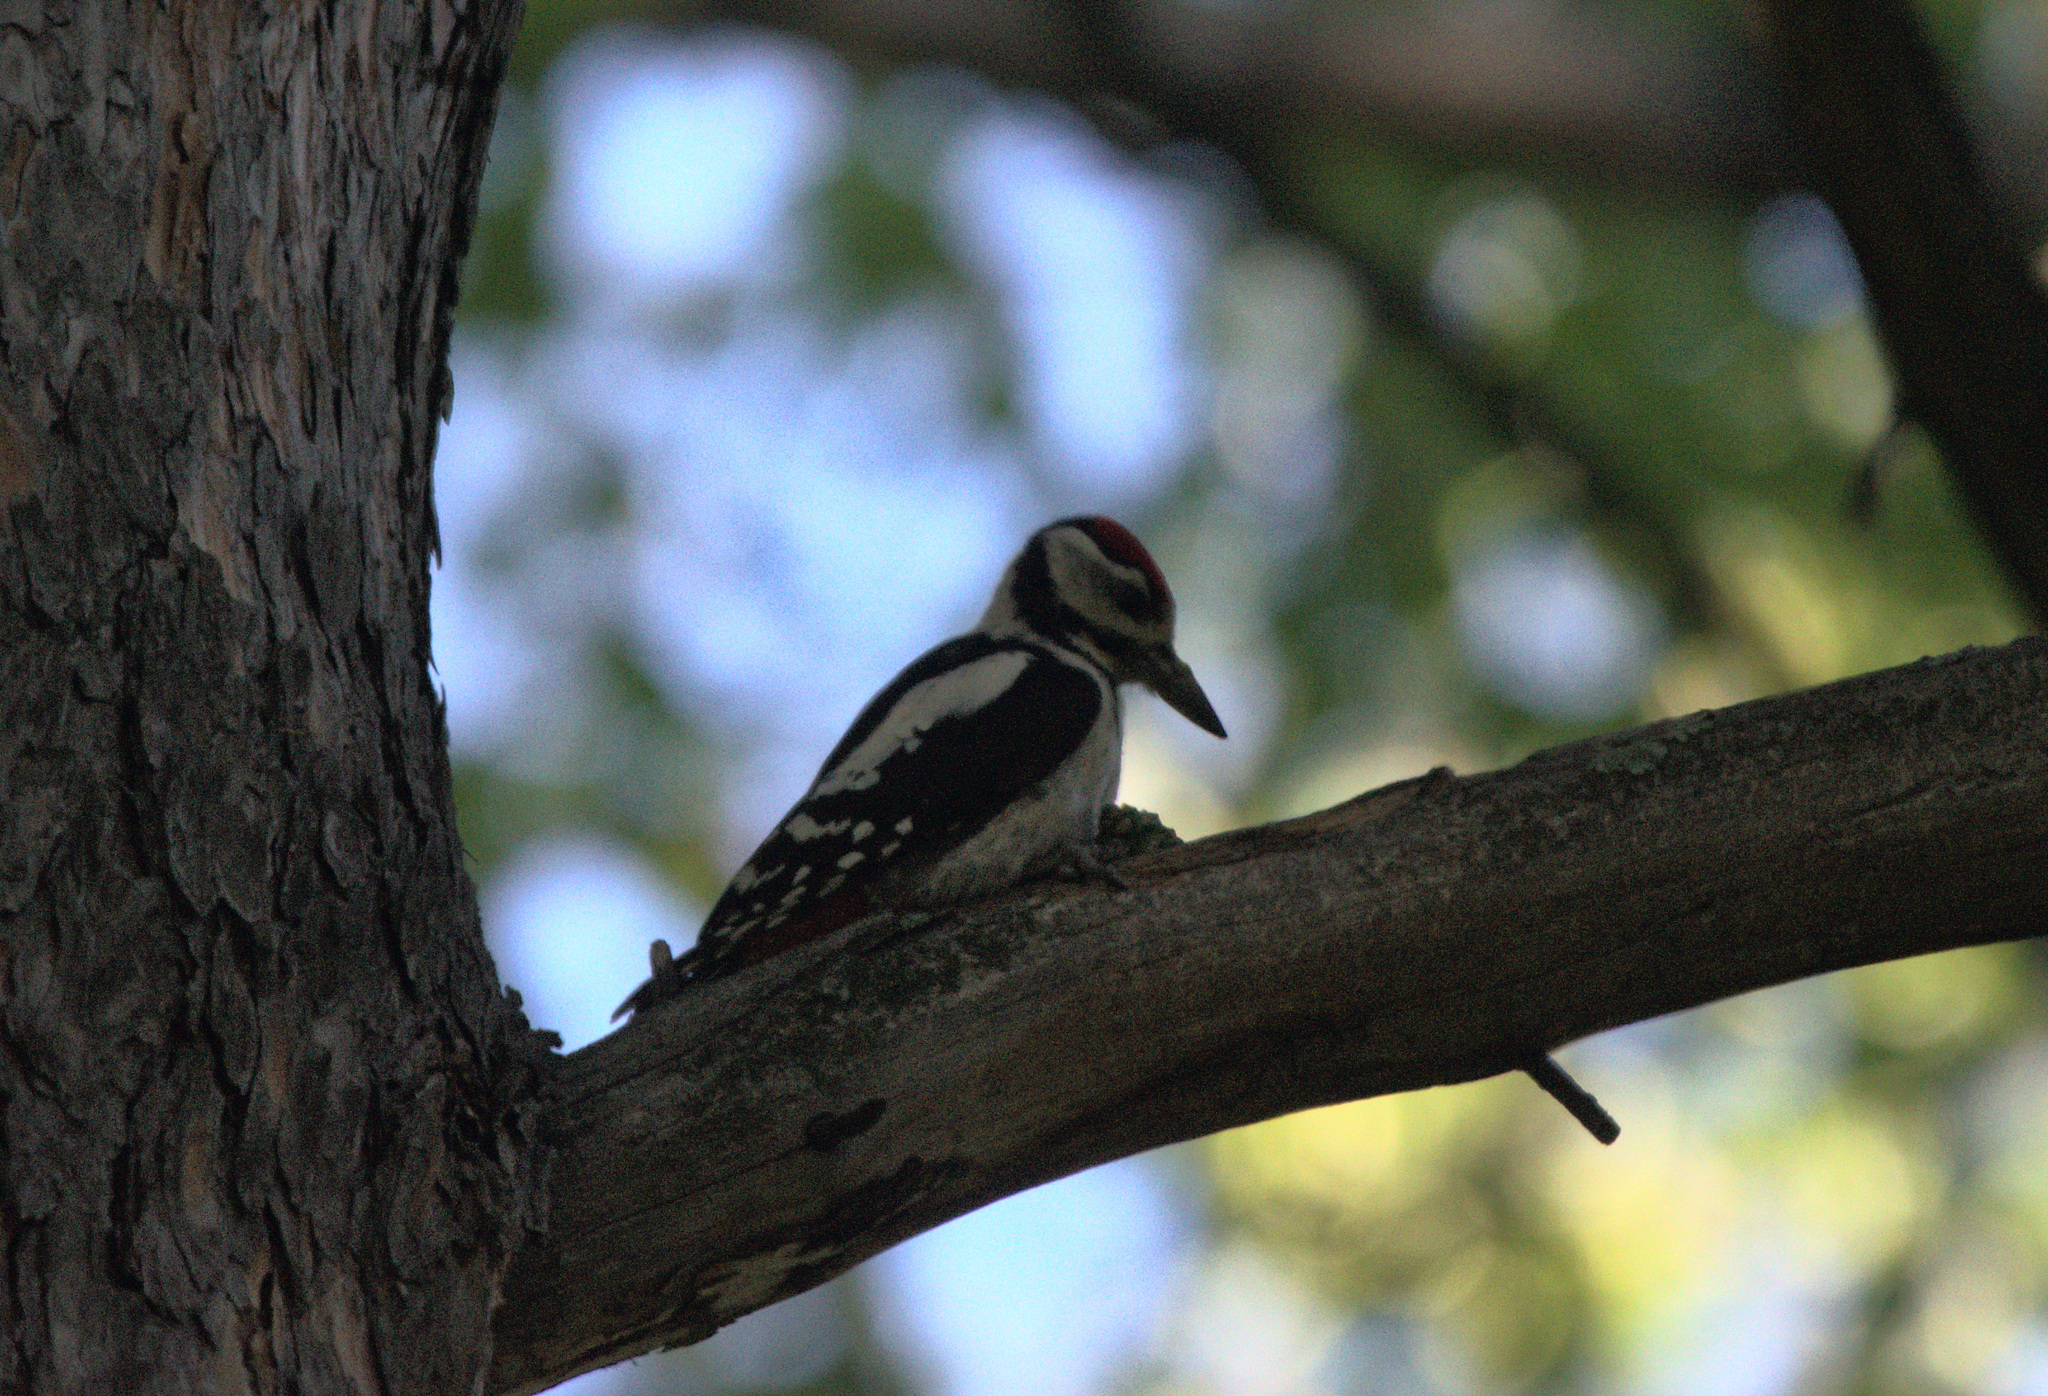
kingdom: Animalia
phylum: Chordata
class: Aves
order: Piciformes
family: Picidae
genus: Dendrocopos
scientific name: Dendrocopos major
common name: Great spotted woodpecker
